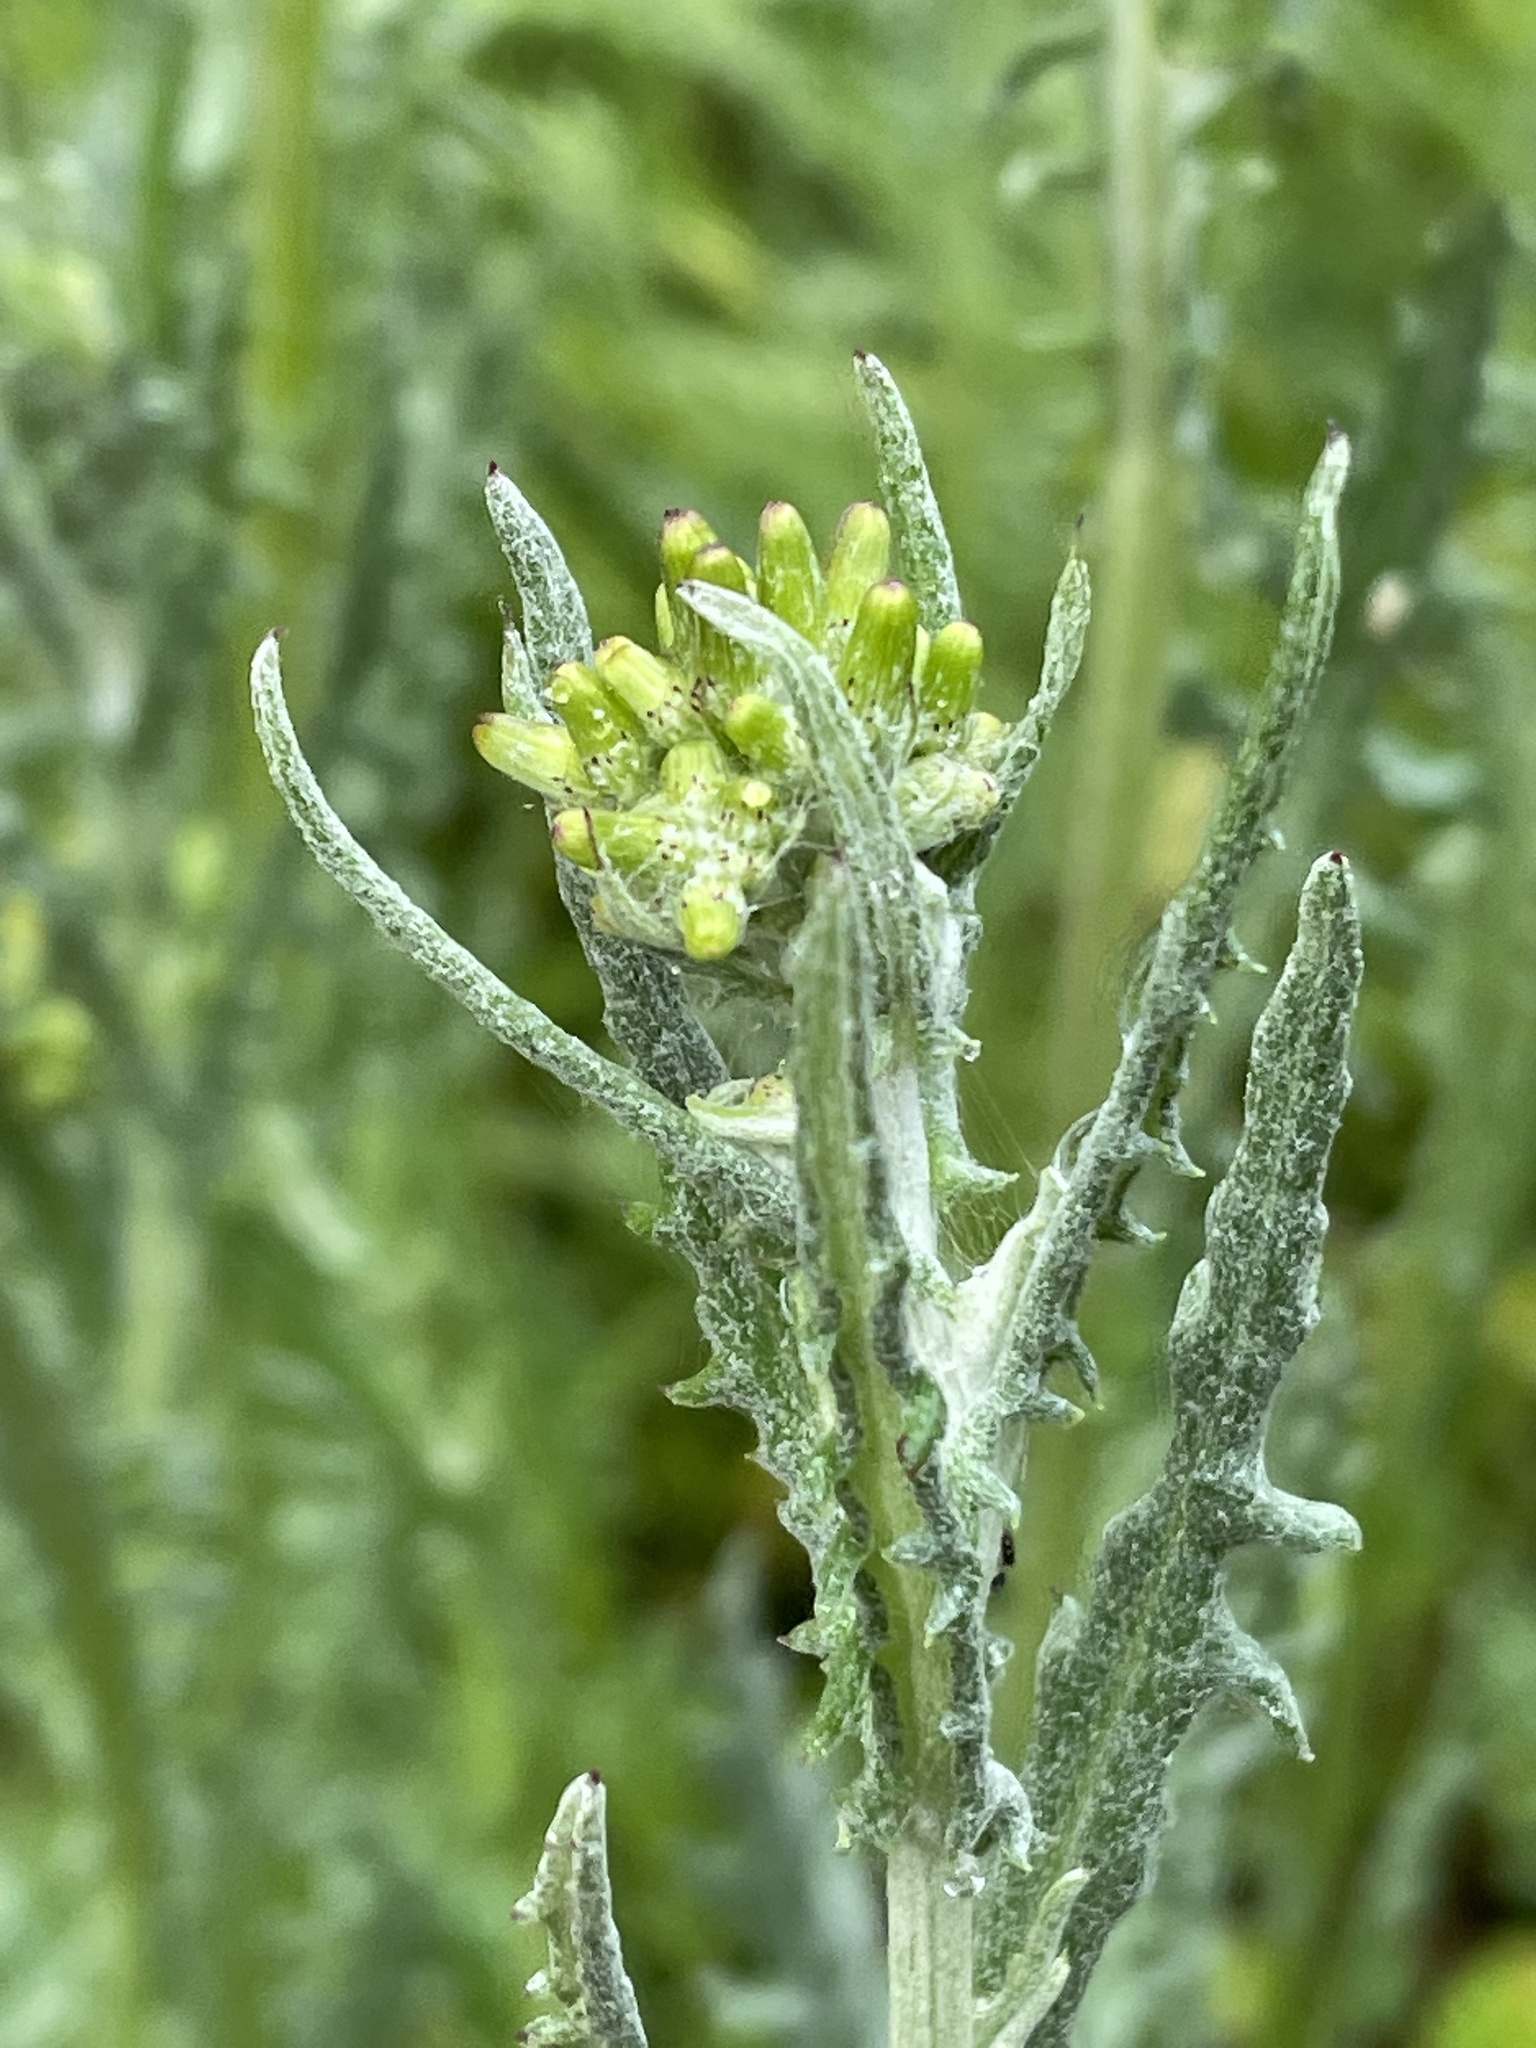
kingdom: Plantae
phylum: Tracheophyta
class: Magnoliopsida
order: Asterales
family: Asteraceae
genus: Senecio
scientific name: Senecio glomeratus
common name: Cutleaf burnweed
